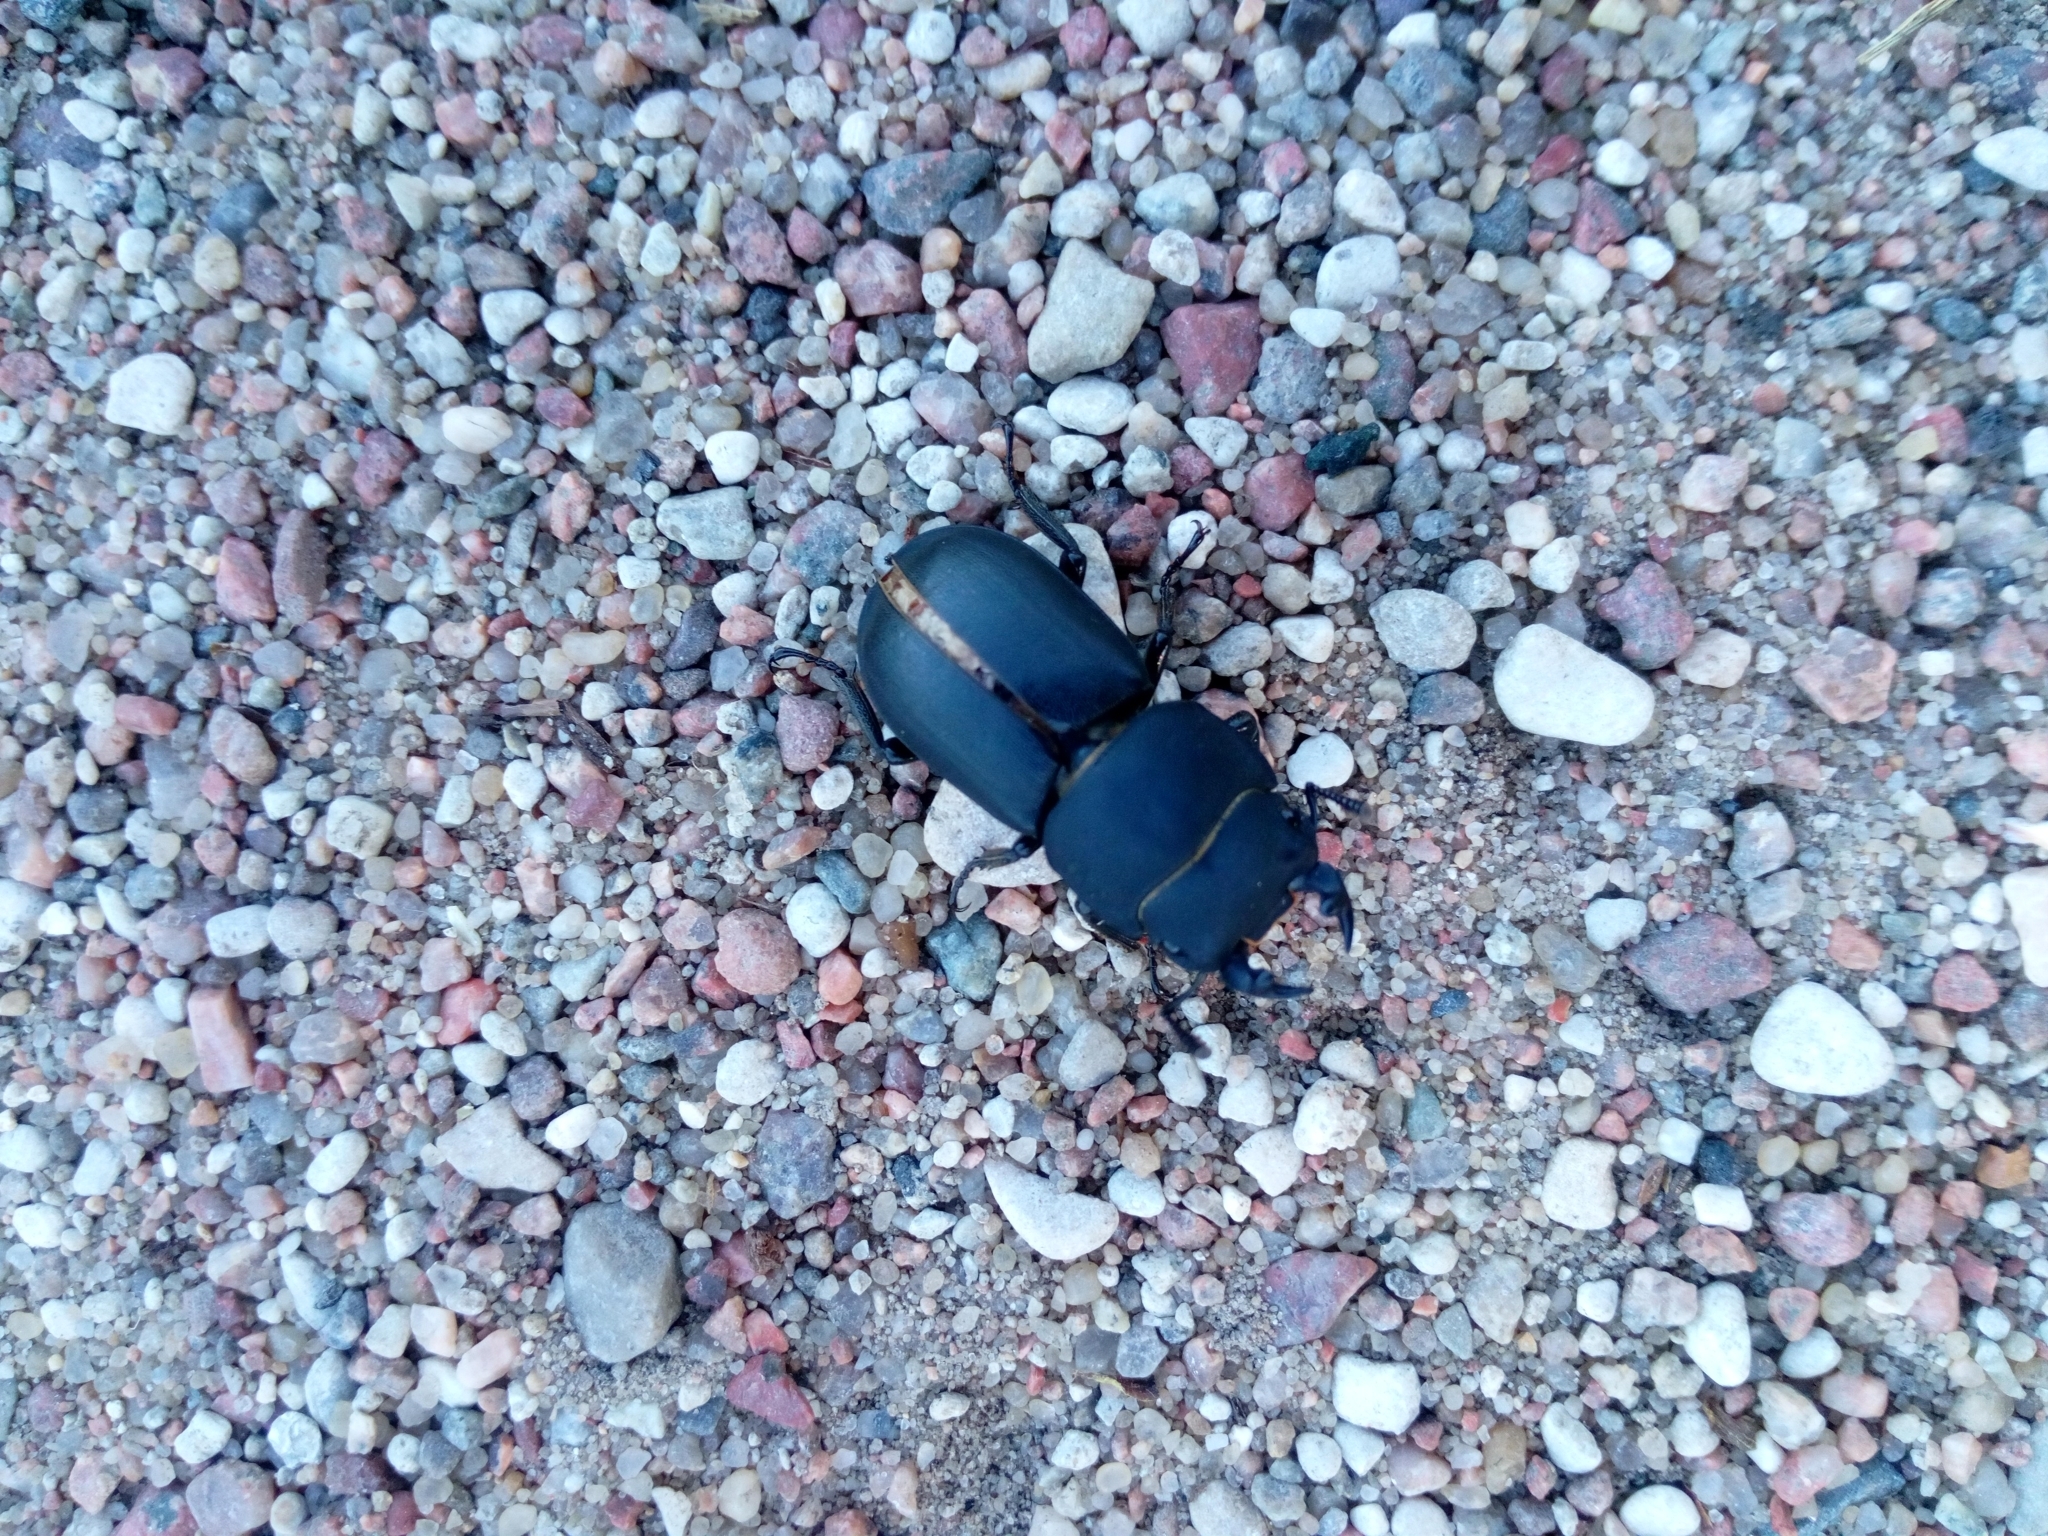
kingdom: Animalia
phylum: Arthropoda
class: Insecta
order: Coleoptera
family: Lucanidae
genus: Dorcus
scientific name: Dorcus parallelipipedus
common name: Lesser stag beetle
